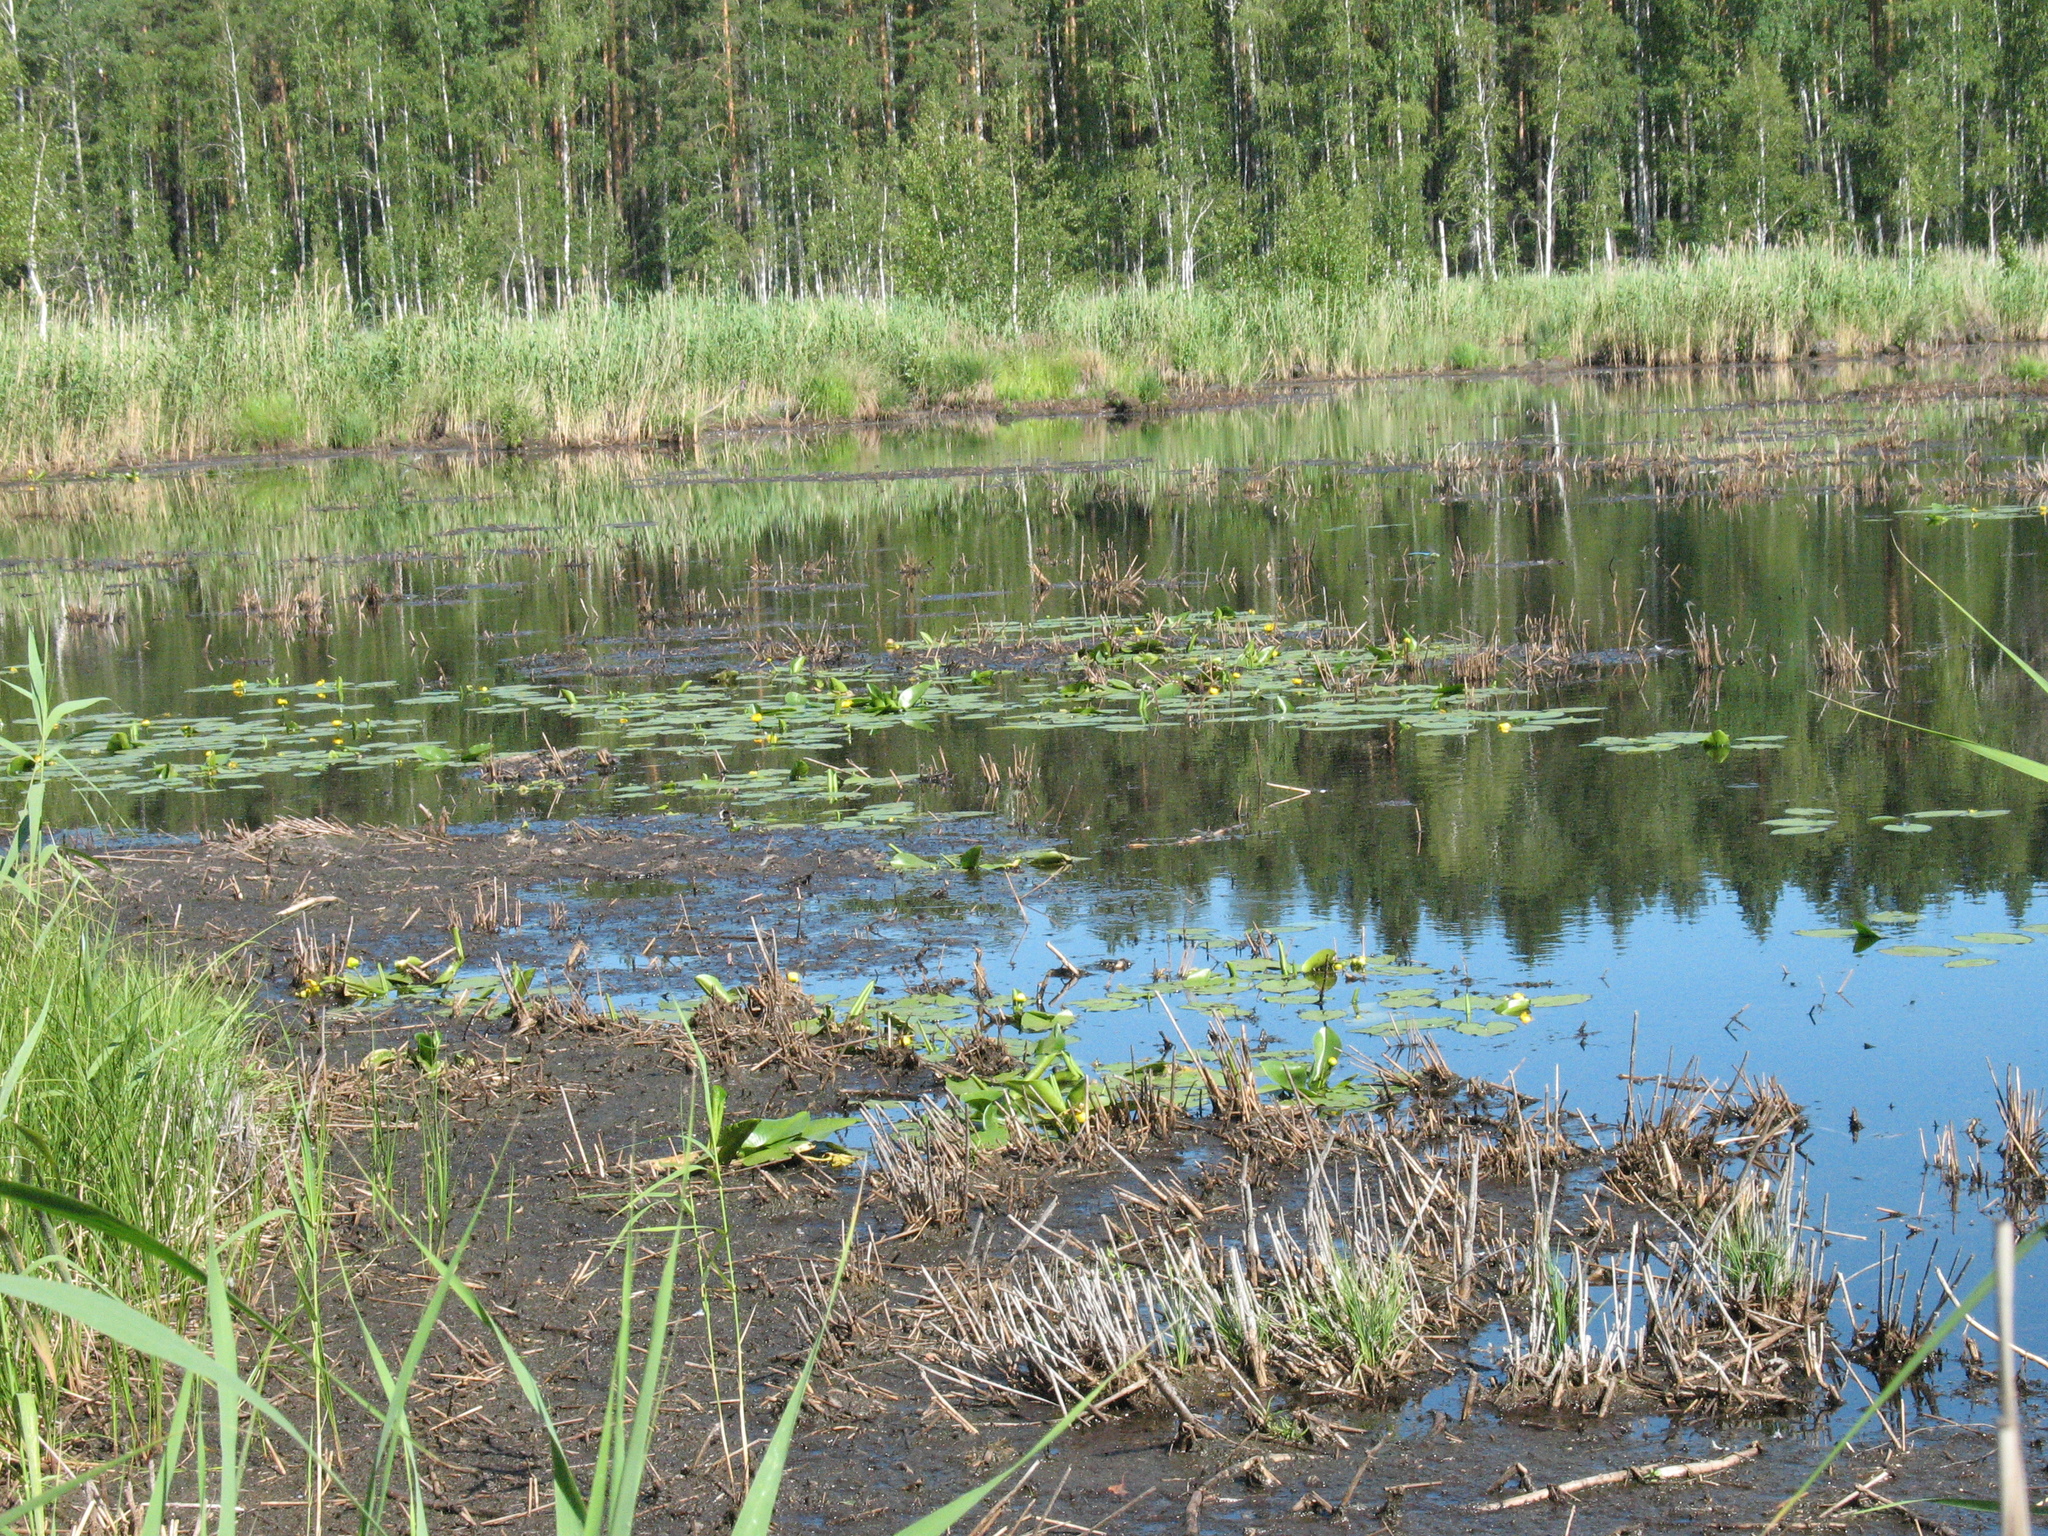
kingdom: Plantae
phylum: Tracheophyta
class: Magnoliopsida
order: Nymphaeales
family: Nymphaeaceae
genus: Nuphar
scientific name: Nuphar lutea
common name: Yellow water-lily
